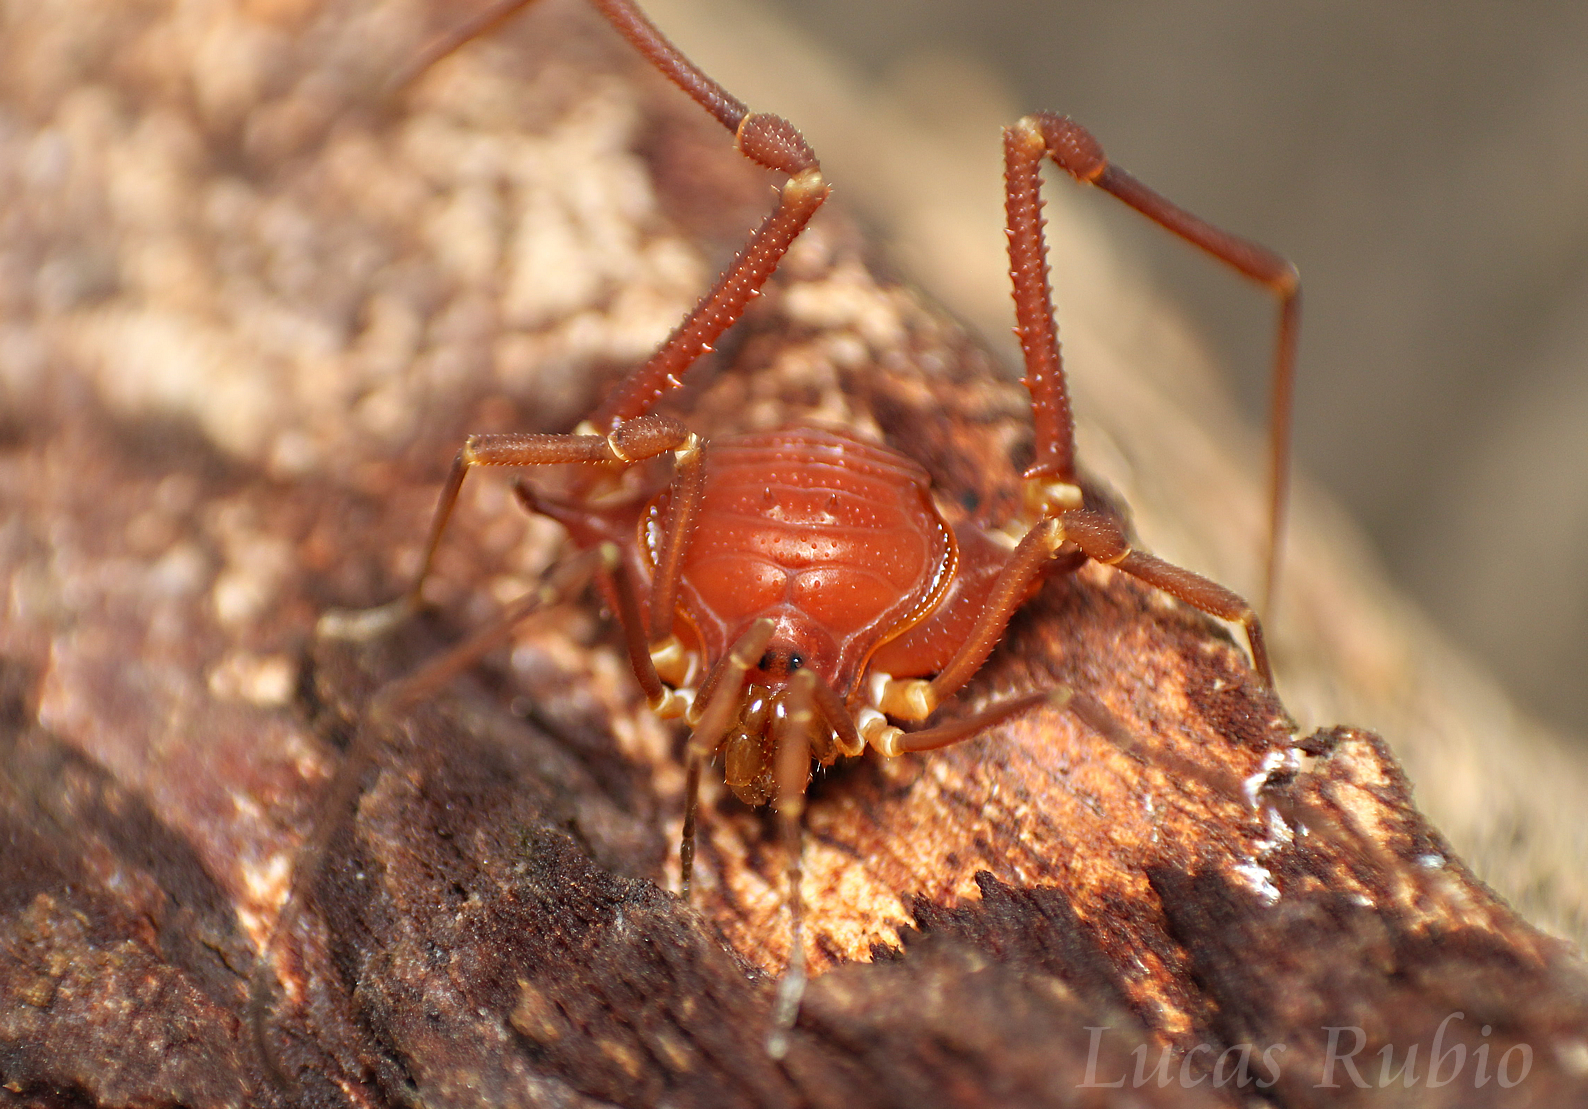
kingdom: Animalia
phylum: Arthropoda
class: Arachnida
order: Opiliones
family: Gonyleptidae
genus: Krateromaspis
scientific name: Krateromaspis dilatata
